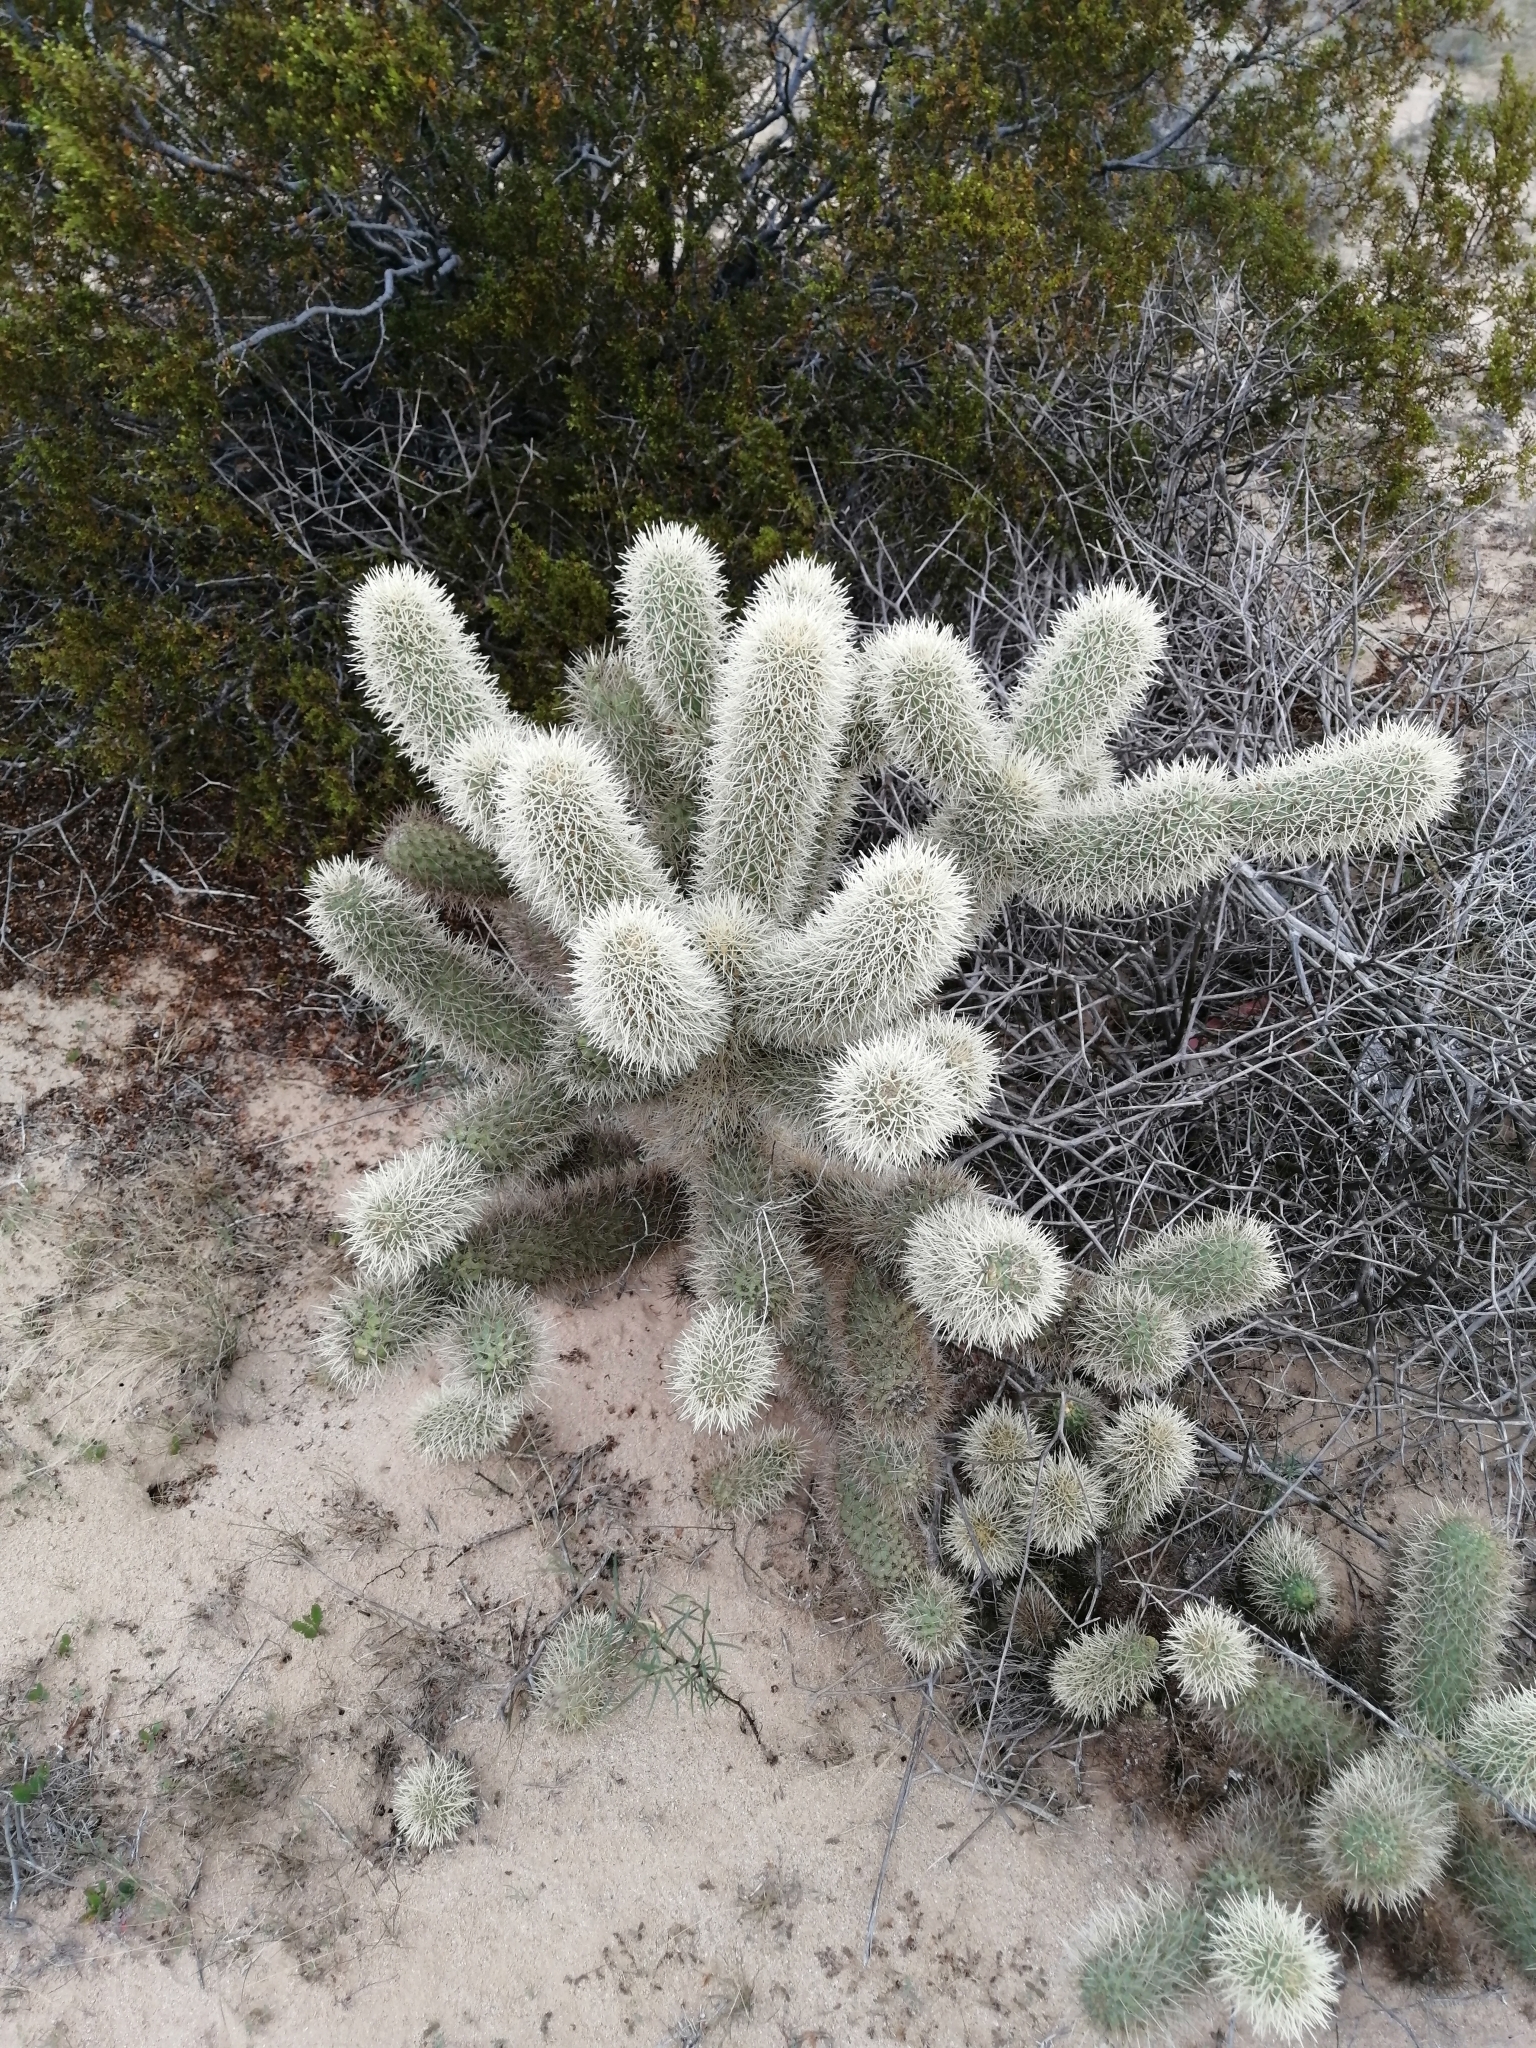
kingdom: Plantae
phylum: Tracheophyta
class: Magnoliopsida
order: Caryophyllales
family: Cactaceae
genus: Cylindropuntia
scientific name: Cylindropuntia fosbergii
